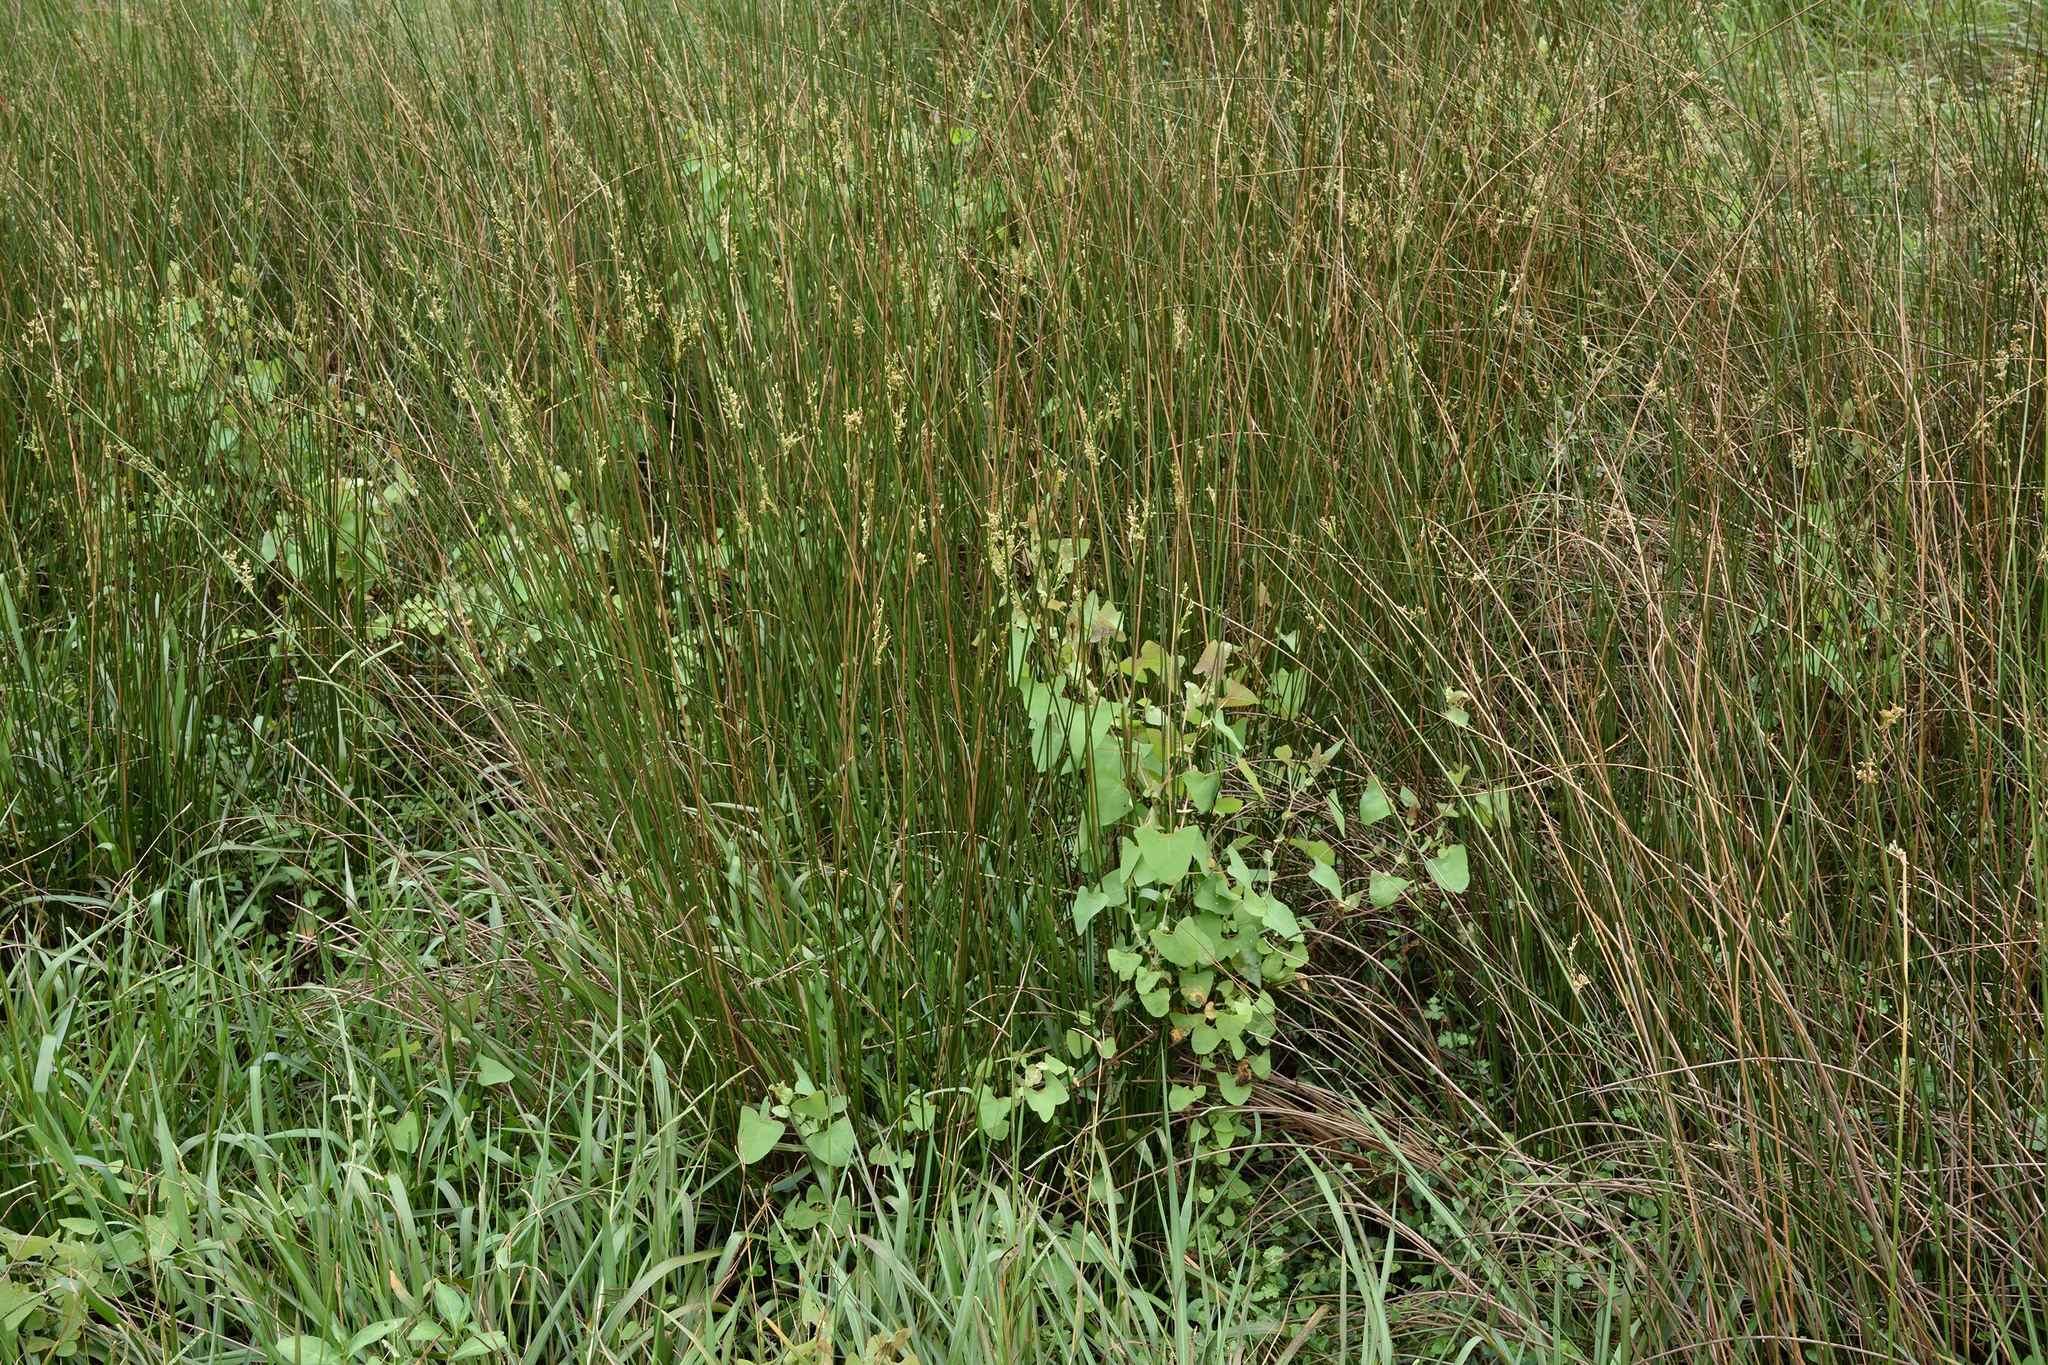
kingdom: Plantae
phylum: Tracheophyta
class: Magnoliopsida
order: Caryophyllales
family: Polygonaceae
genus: Persicaria
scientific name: Persicaria perfoliata
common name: Asiatic tearthumb
